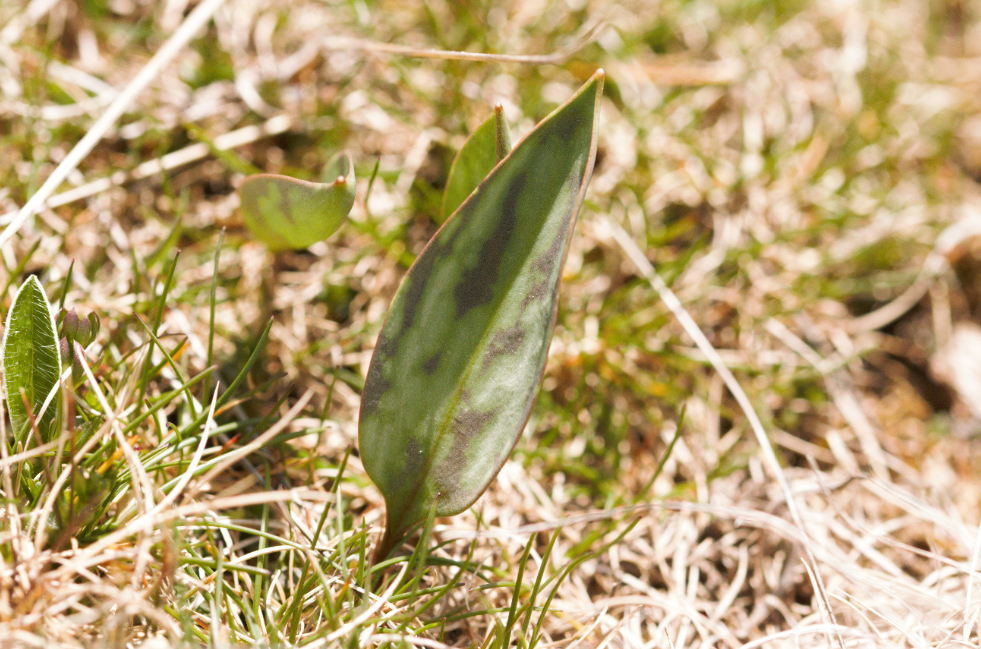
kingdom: Plantae
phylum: Tracheophyta
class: Liliopsida
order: Liliales
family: Liliaceae
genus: Erythronium
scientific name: Erythronium dens-canis
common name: Dog's-tooth-violet
